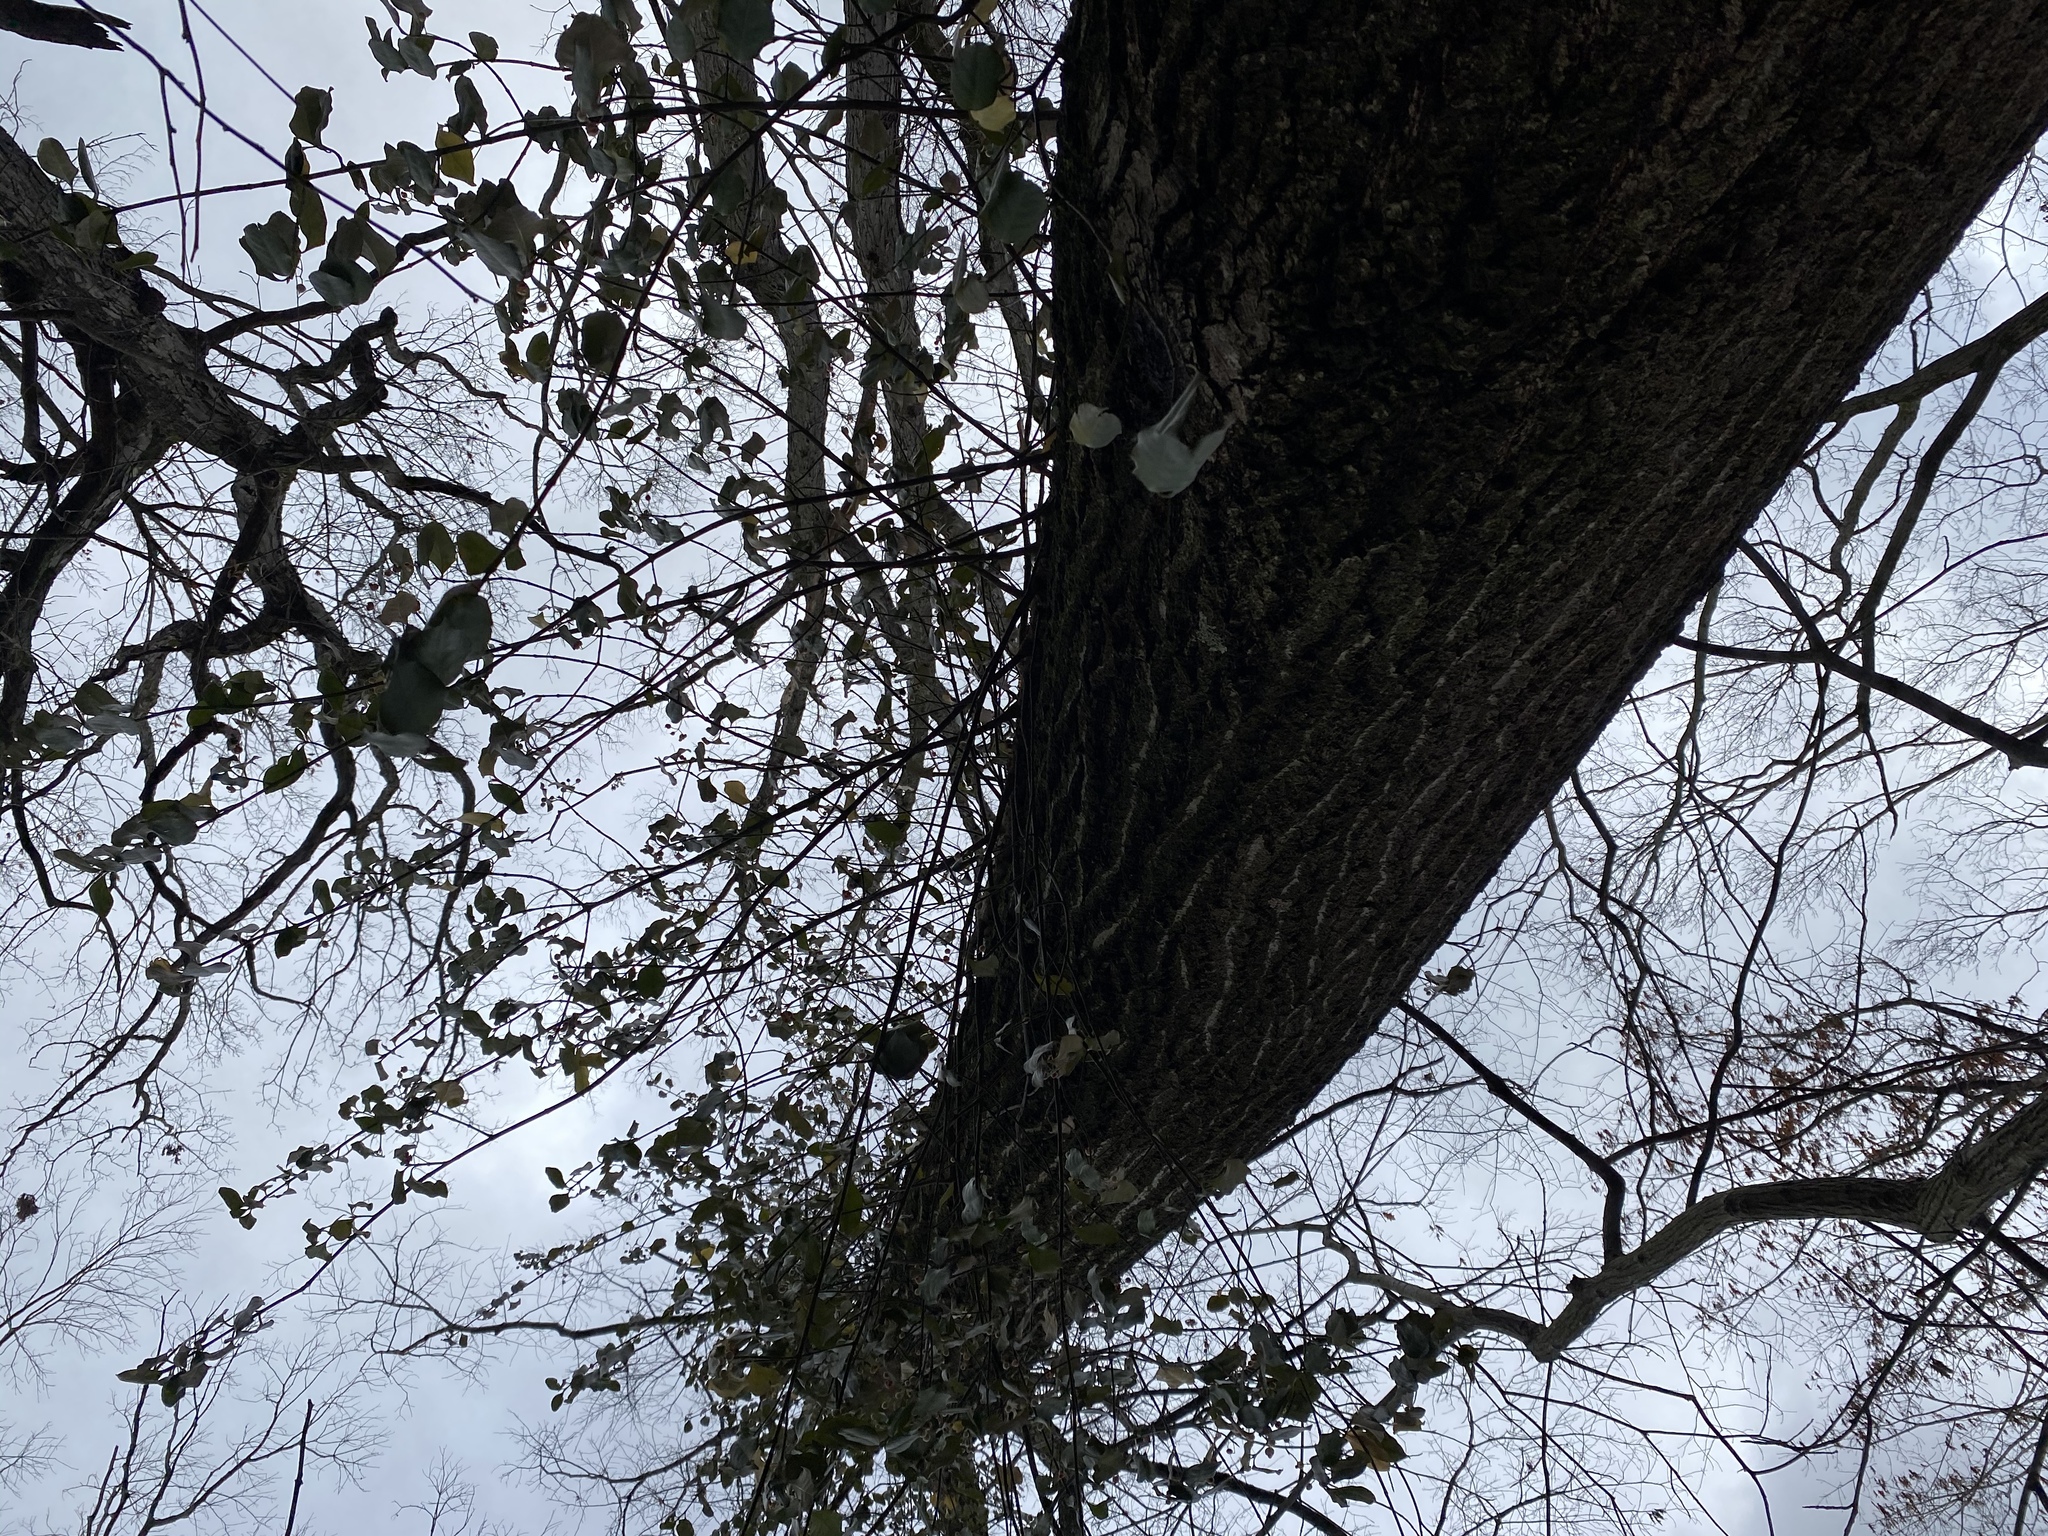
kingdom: Plantae
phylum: Tracheophyta
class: Magnoliopsida
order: Celastrales
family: Celastraceae
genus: Euonymus
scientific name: Euonymus fortunei
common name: Climbing euonymus
